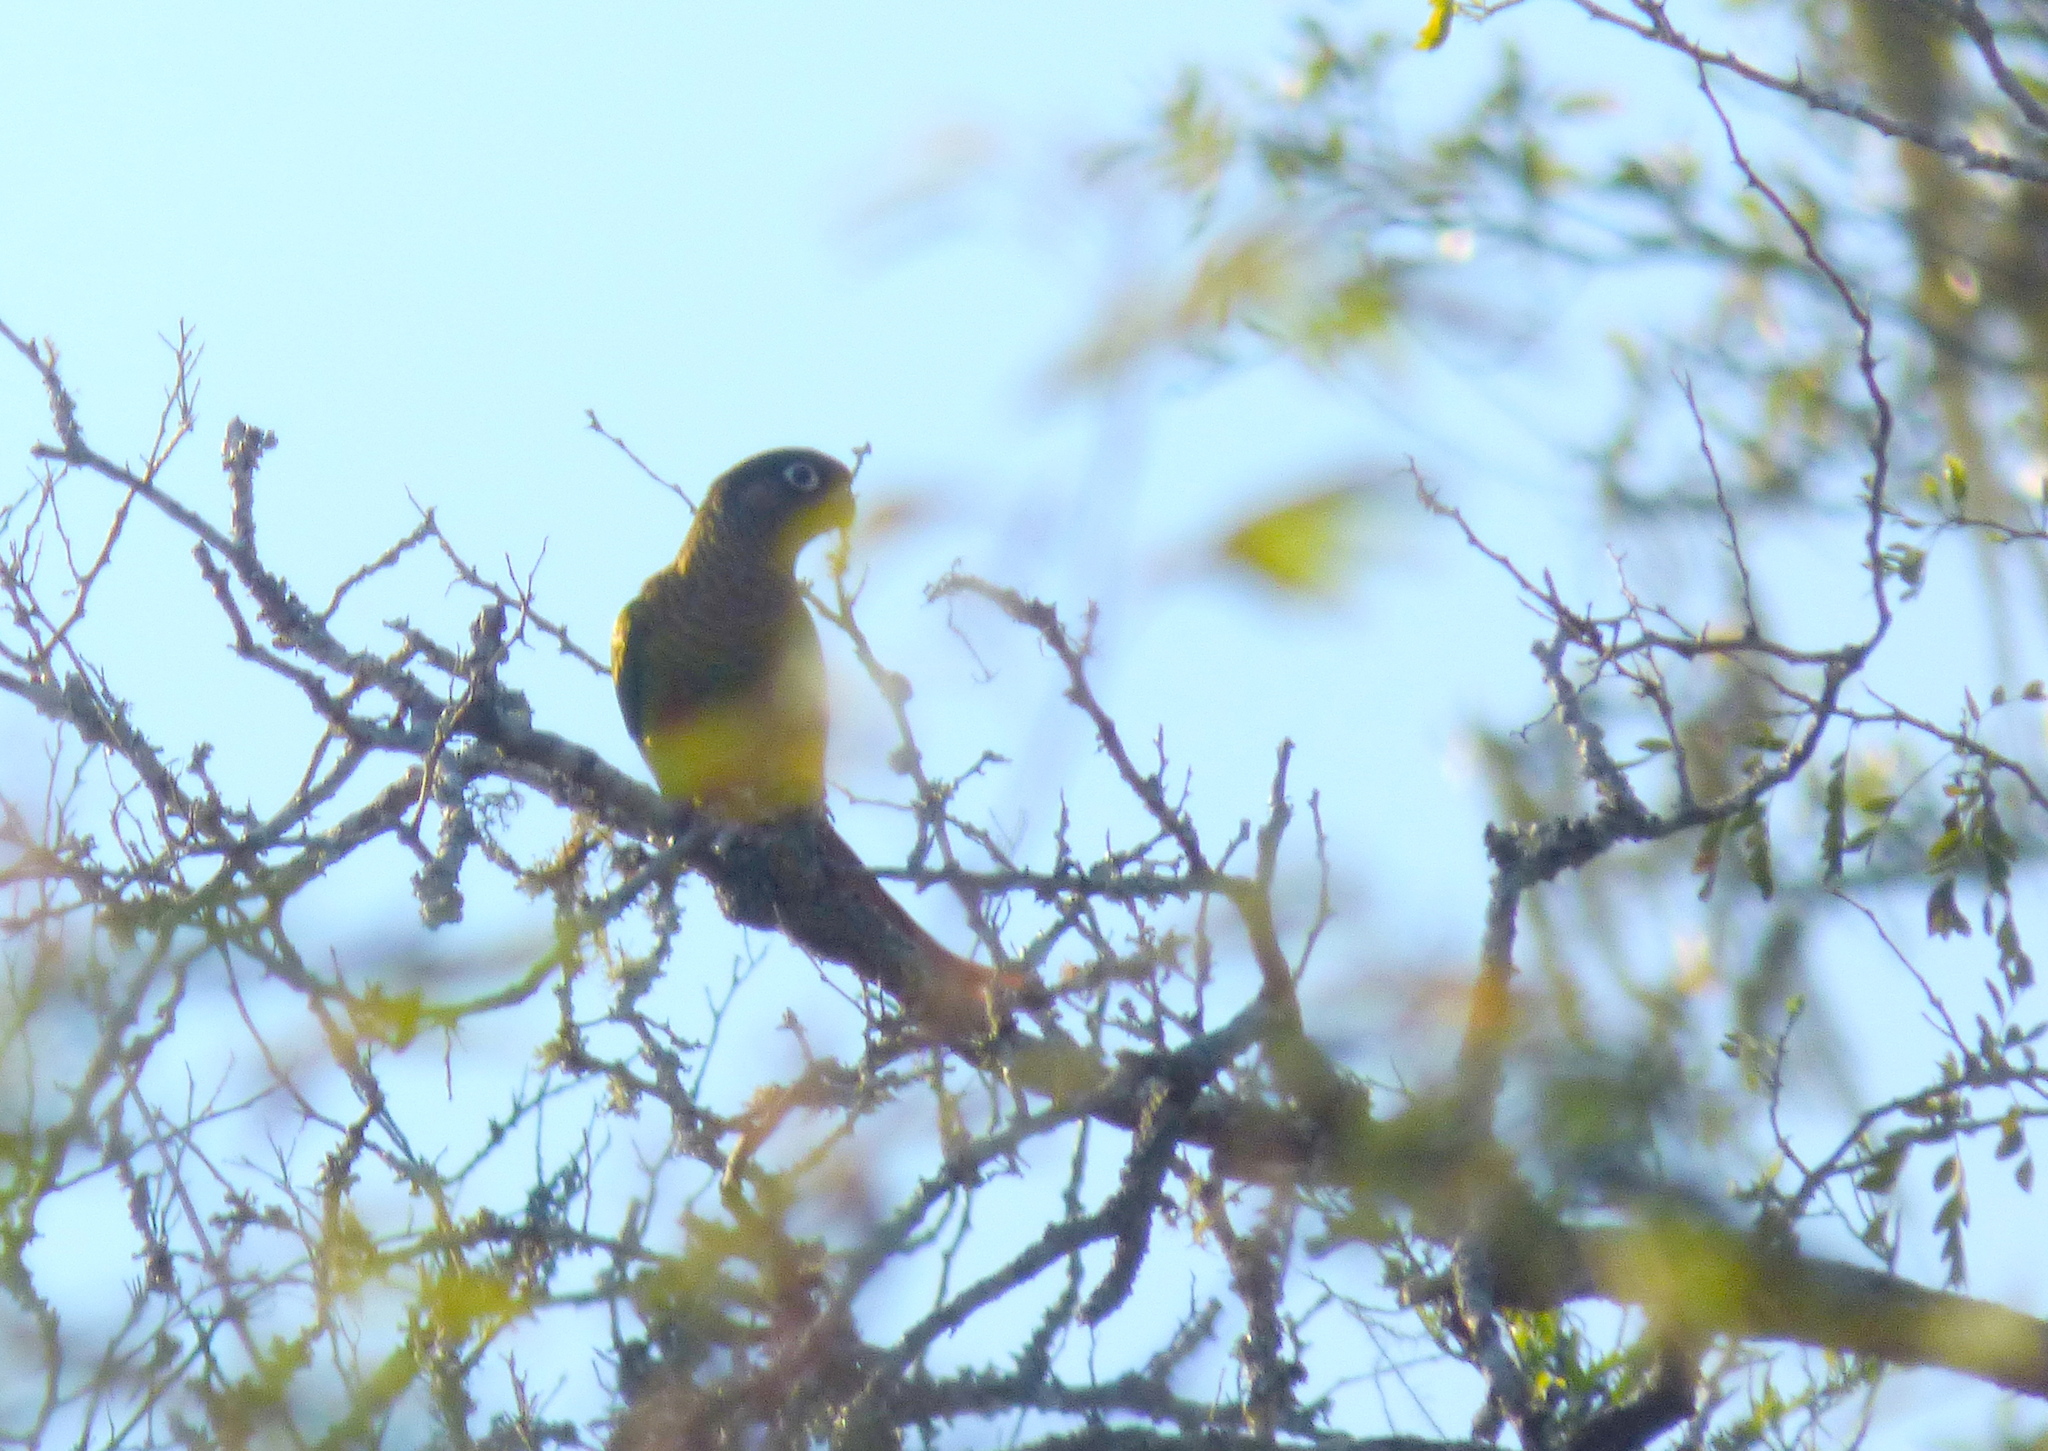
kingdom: Animalia
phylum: Chordata
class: Aves
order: Psittaciformes
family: Psittacidae
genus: Pyrrhura
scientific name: Pyrrhura frontalis
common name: Maroon-bellied parakeet
